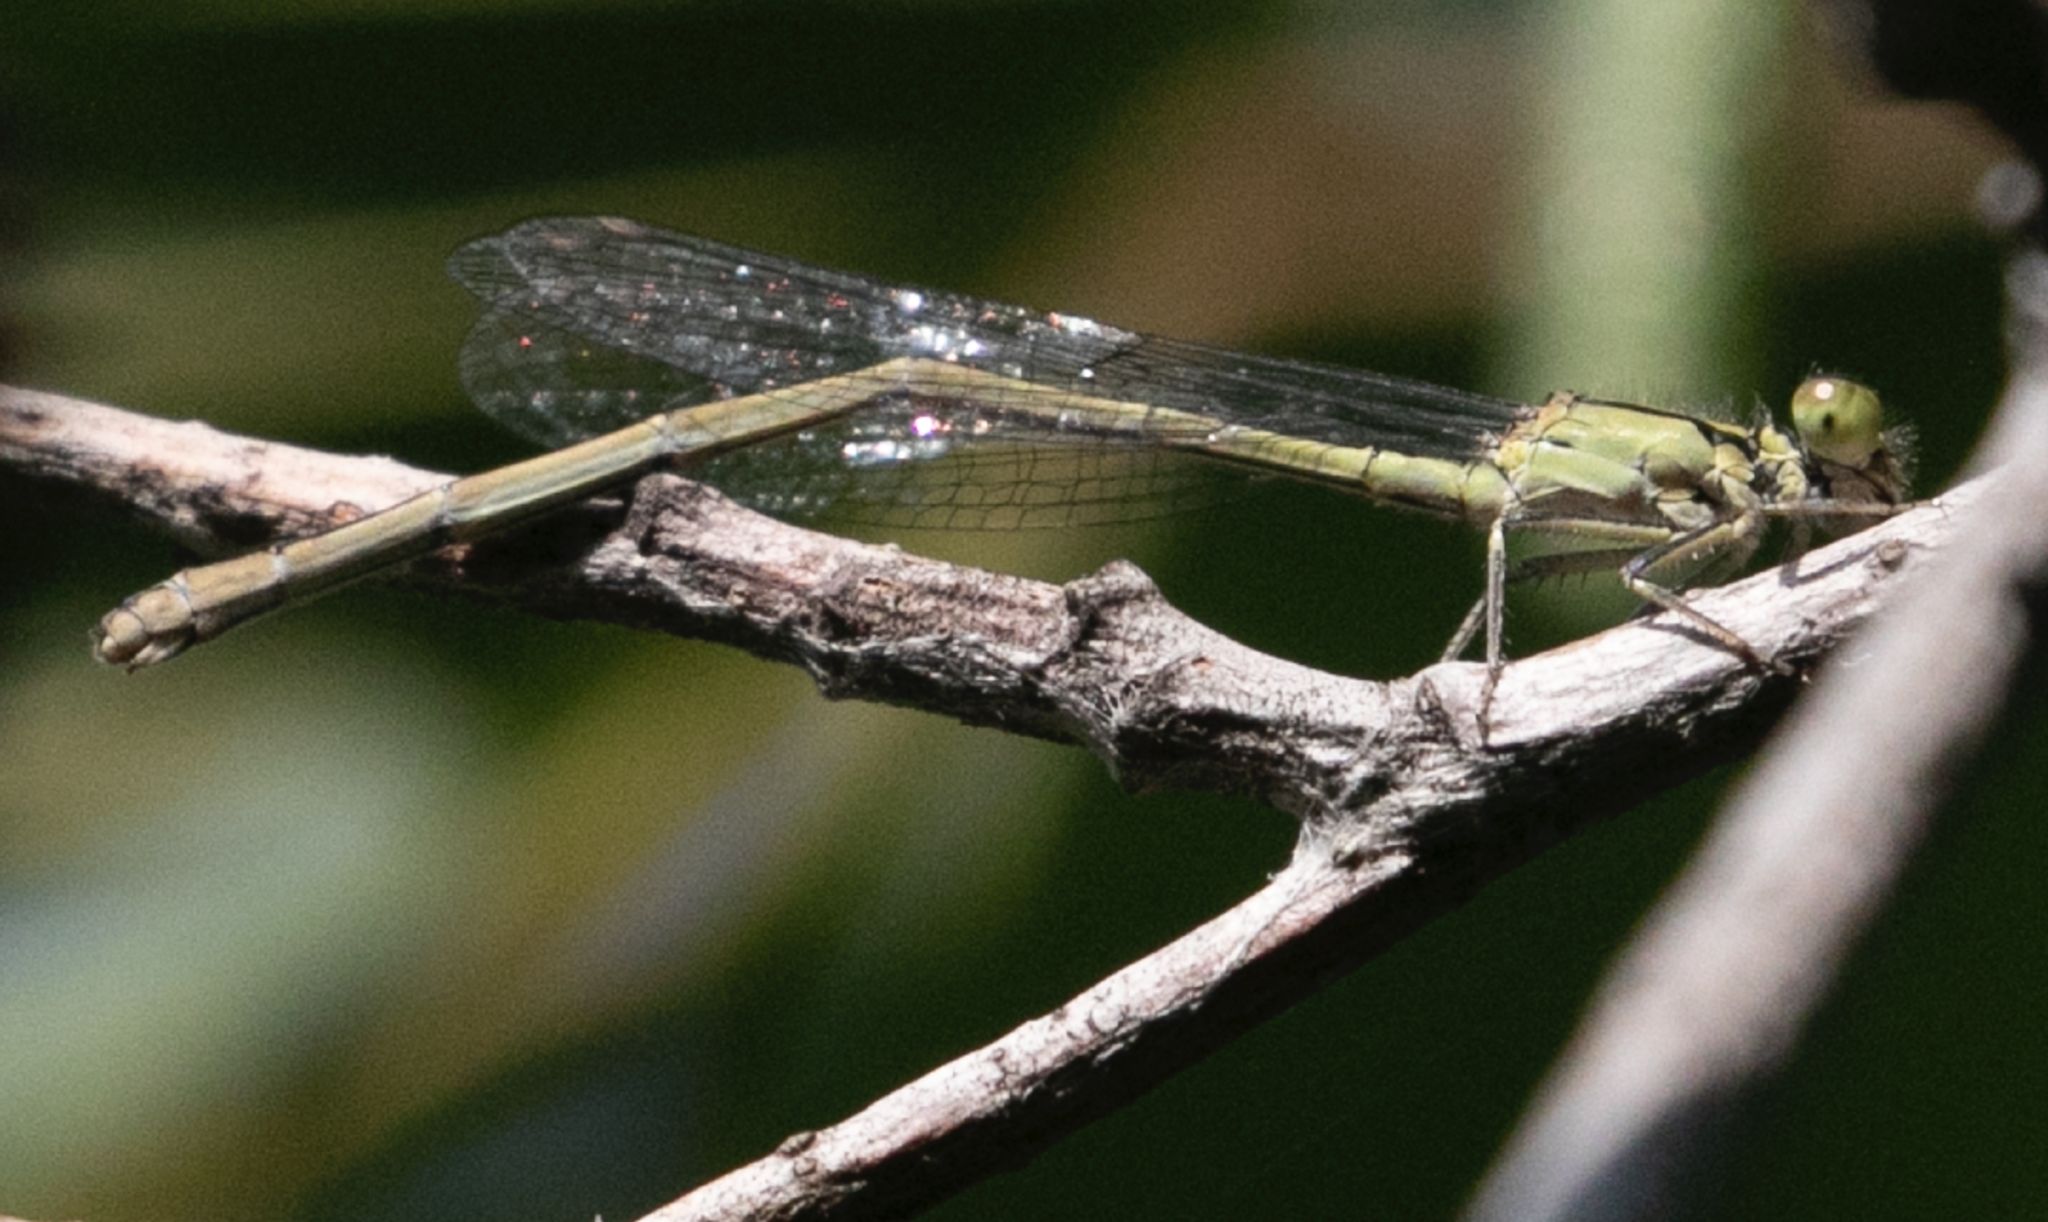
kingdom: Animalia
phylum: Arthropoda
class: Insecta
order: Odonata
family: Coenagrionidae
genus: Ischnura
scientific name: Ischnura elegans
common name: Blue-tailed damselfly
